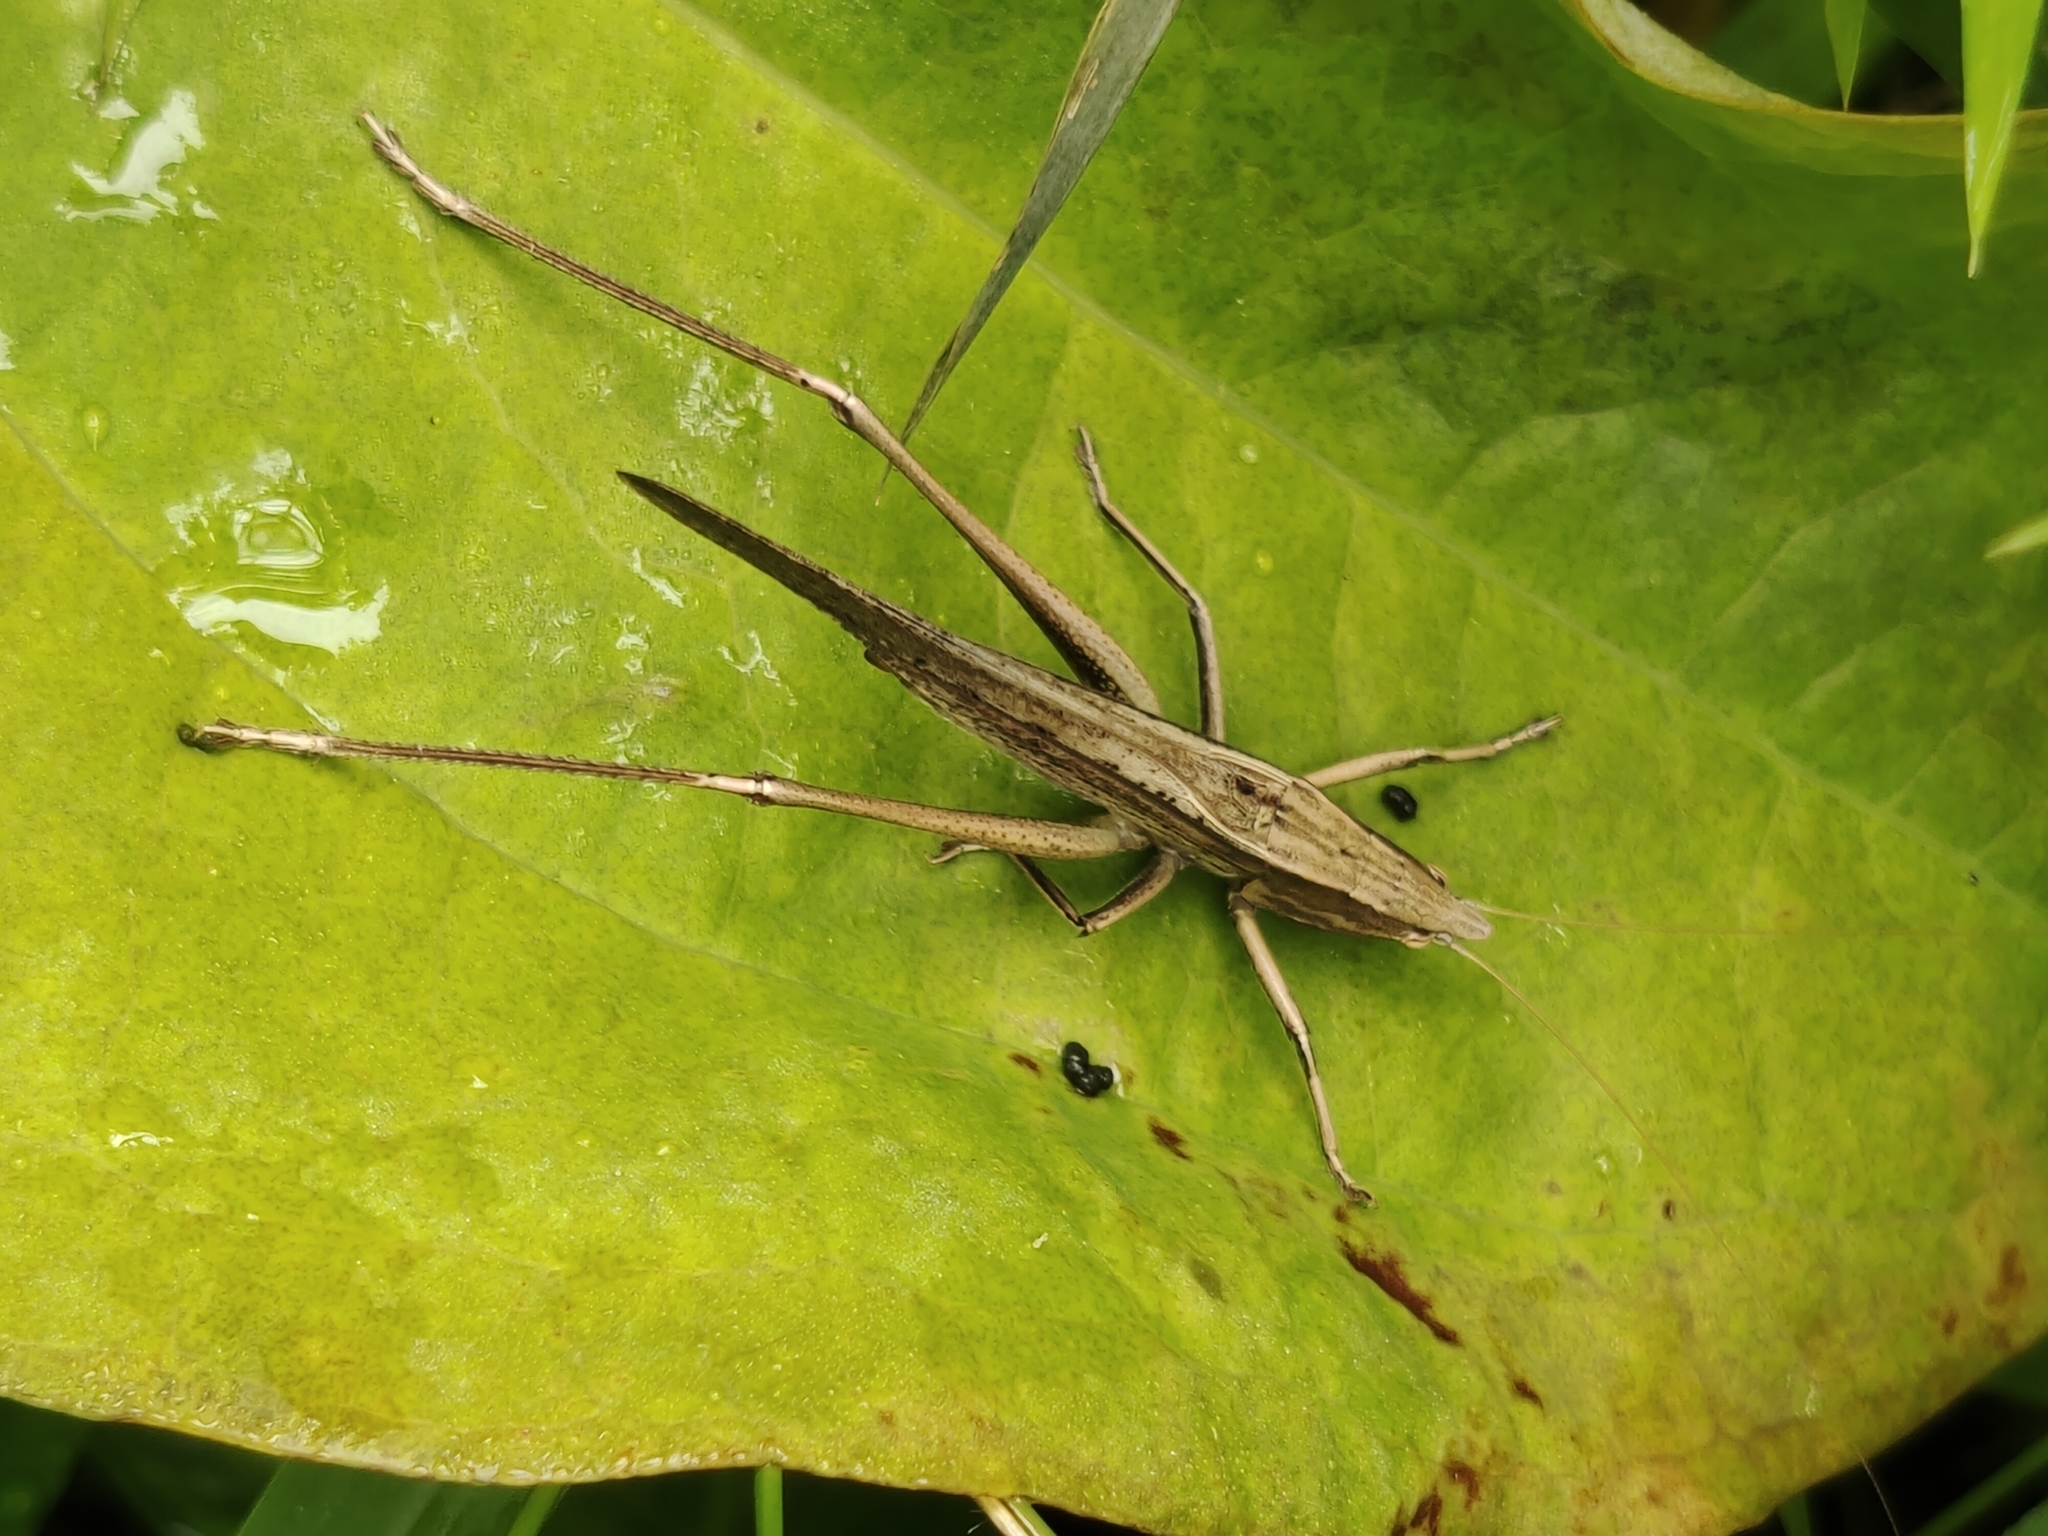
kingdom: Animalia
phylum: Arthropoda
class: Insecta
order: Orthoptera
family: Tettigoniidae
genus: Euconocephalus
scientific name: Euconocephalus picteti
